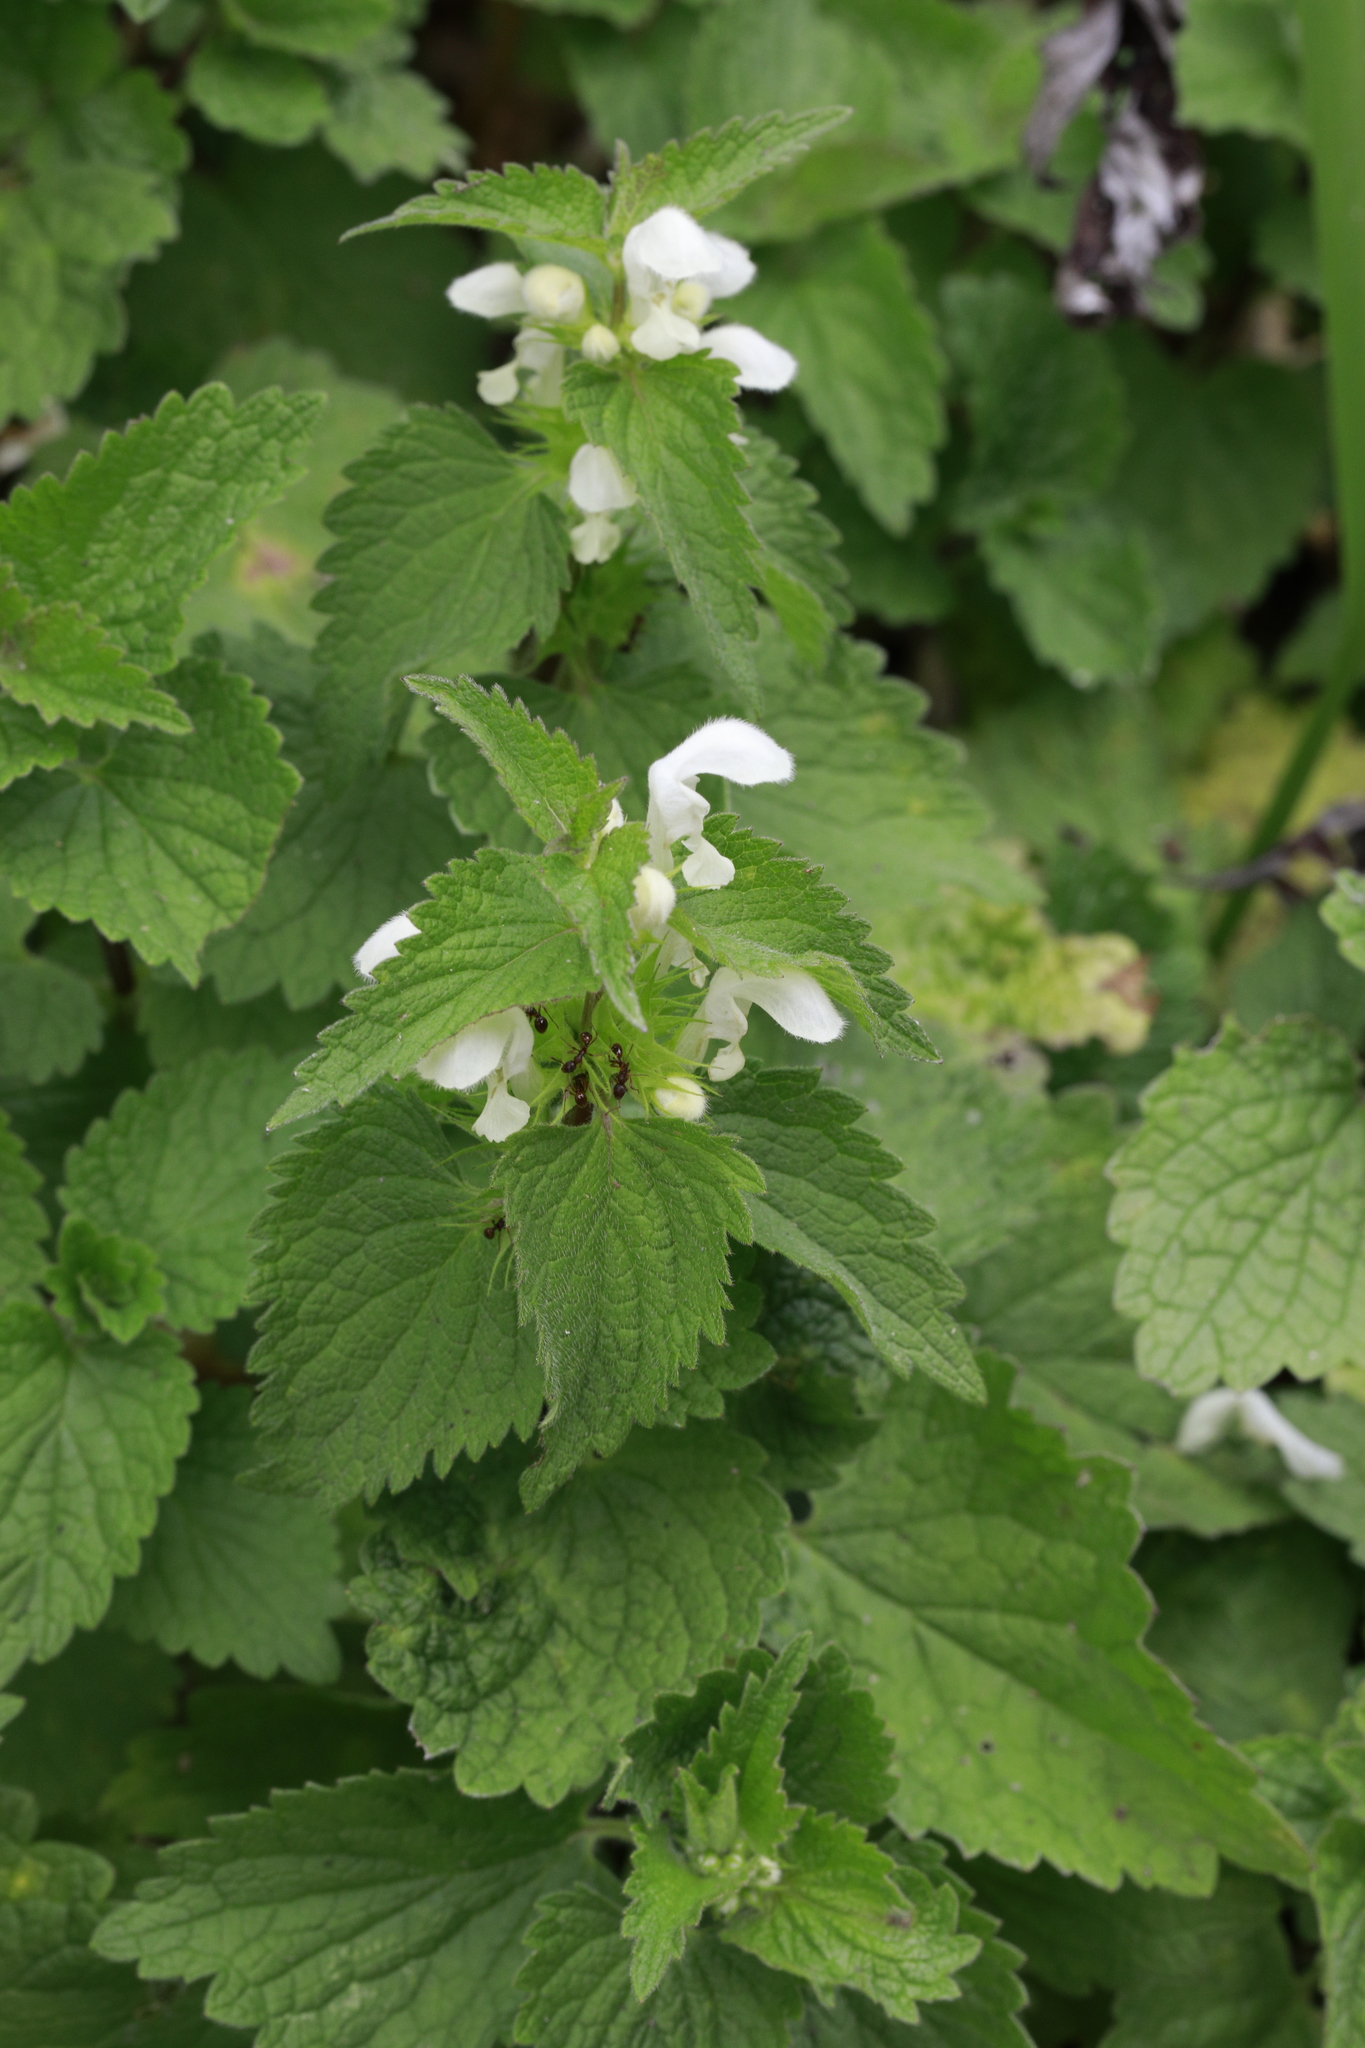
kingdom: Plantae
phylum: Tracheophyta
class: Magnoliopsida
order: Lamiales
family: Lamiaceae
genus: Lamium
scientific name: Lamium album
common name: White dead-nettle
